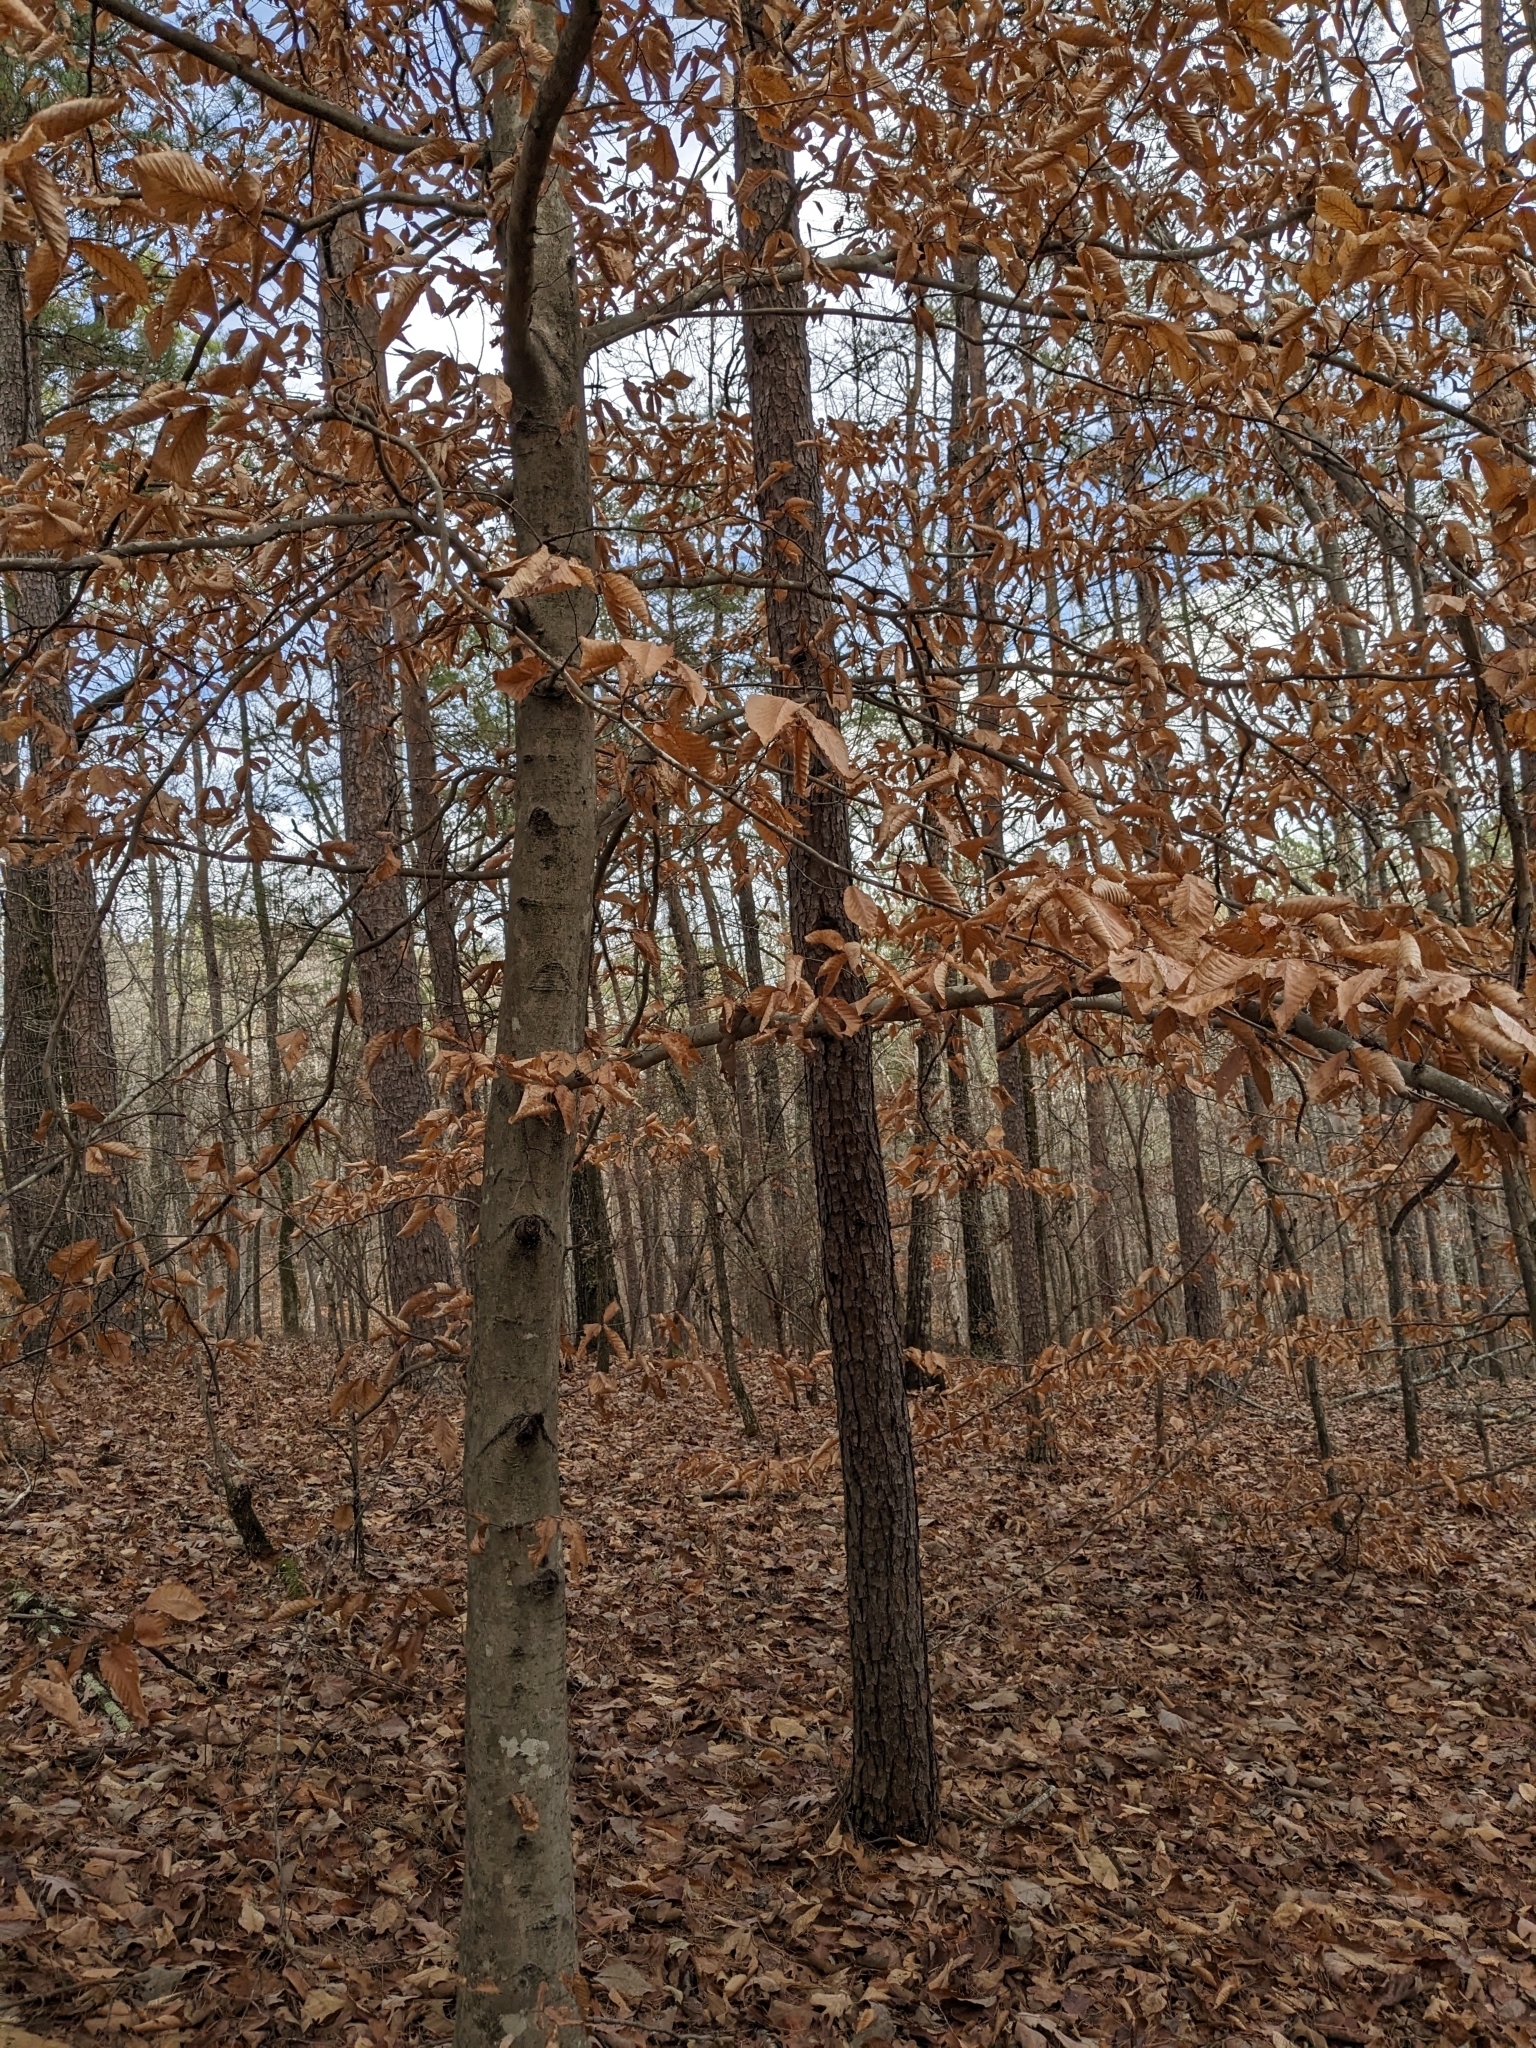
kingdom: Plantae
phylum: Tracheophyta
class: Magnoliopsida
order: Fagales
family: Fagaceae
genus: Fagus
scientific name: Fagus grandifolia
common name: American beech
